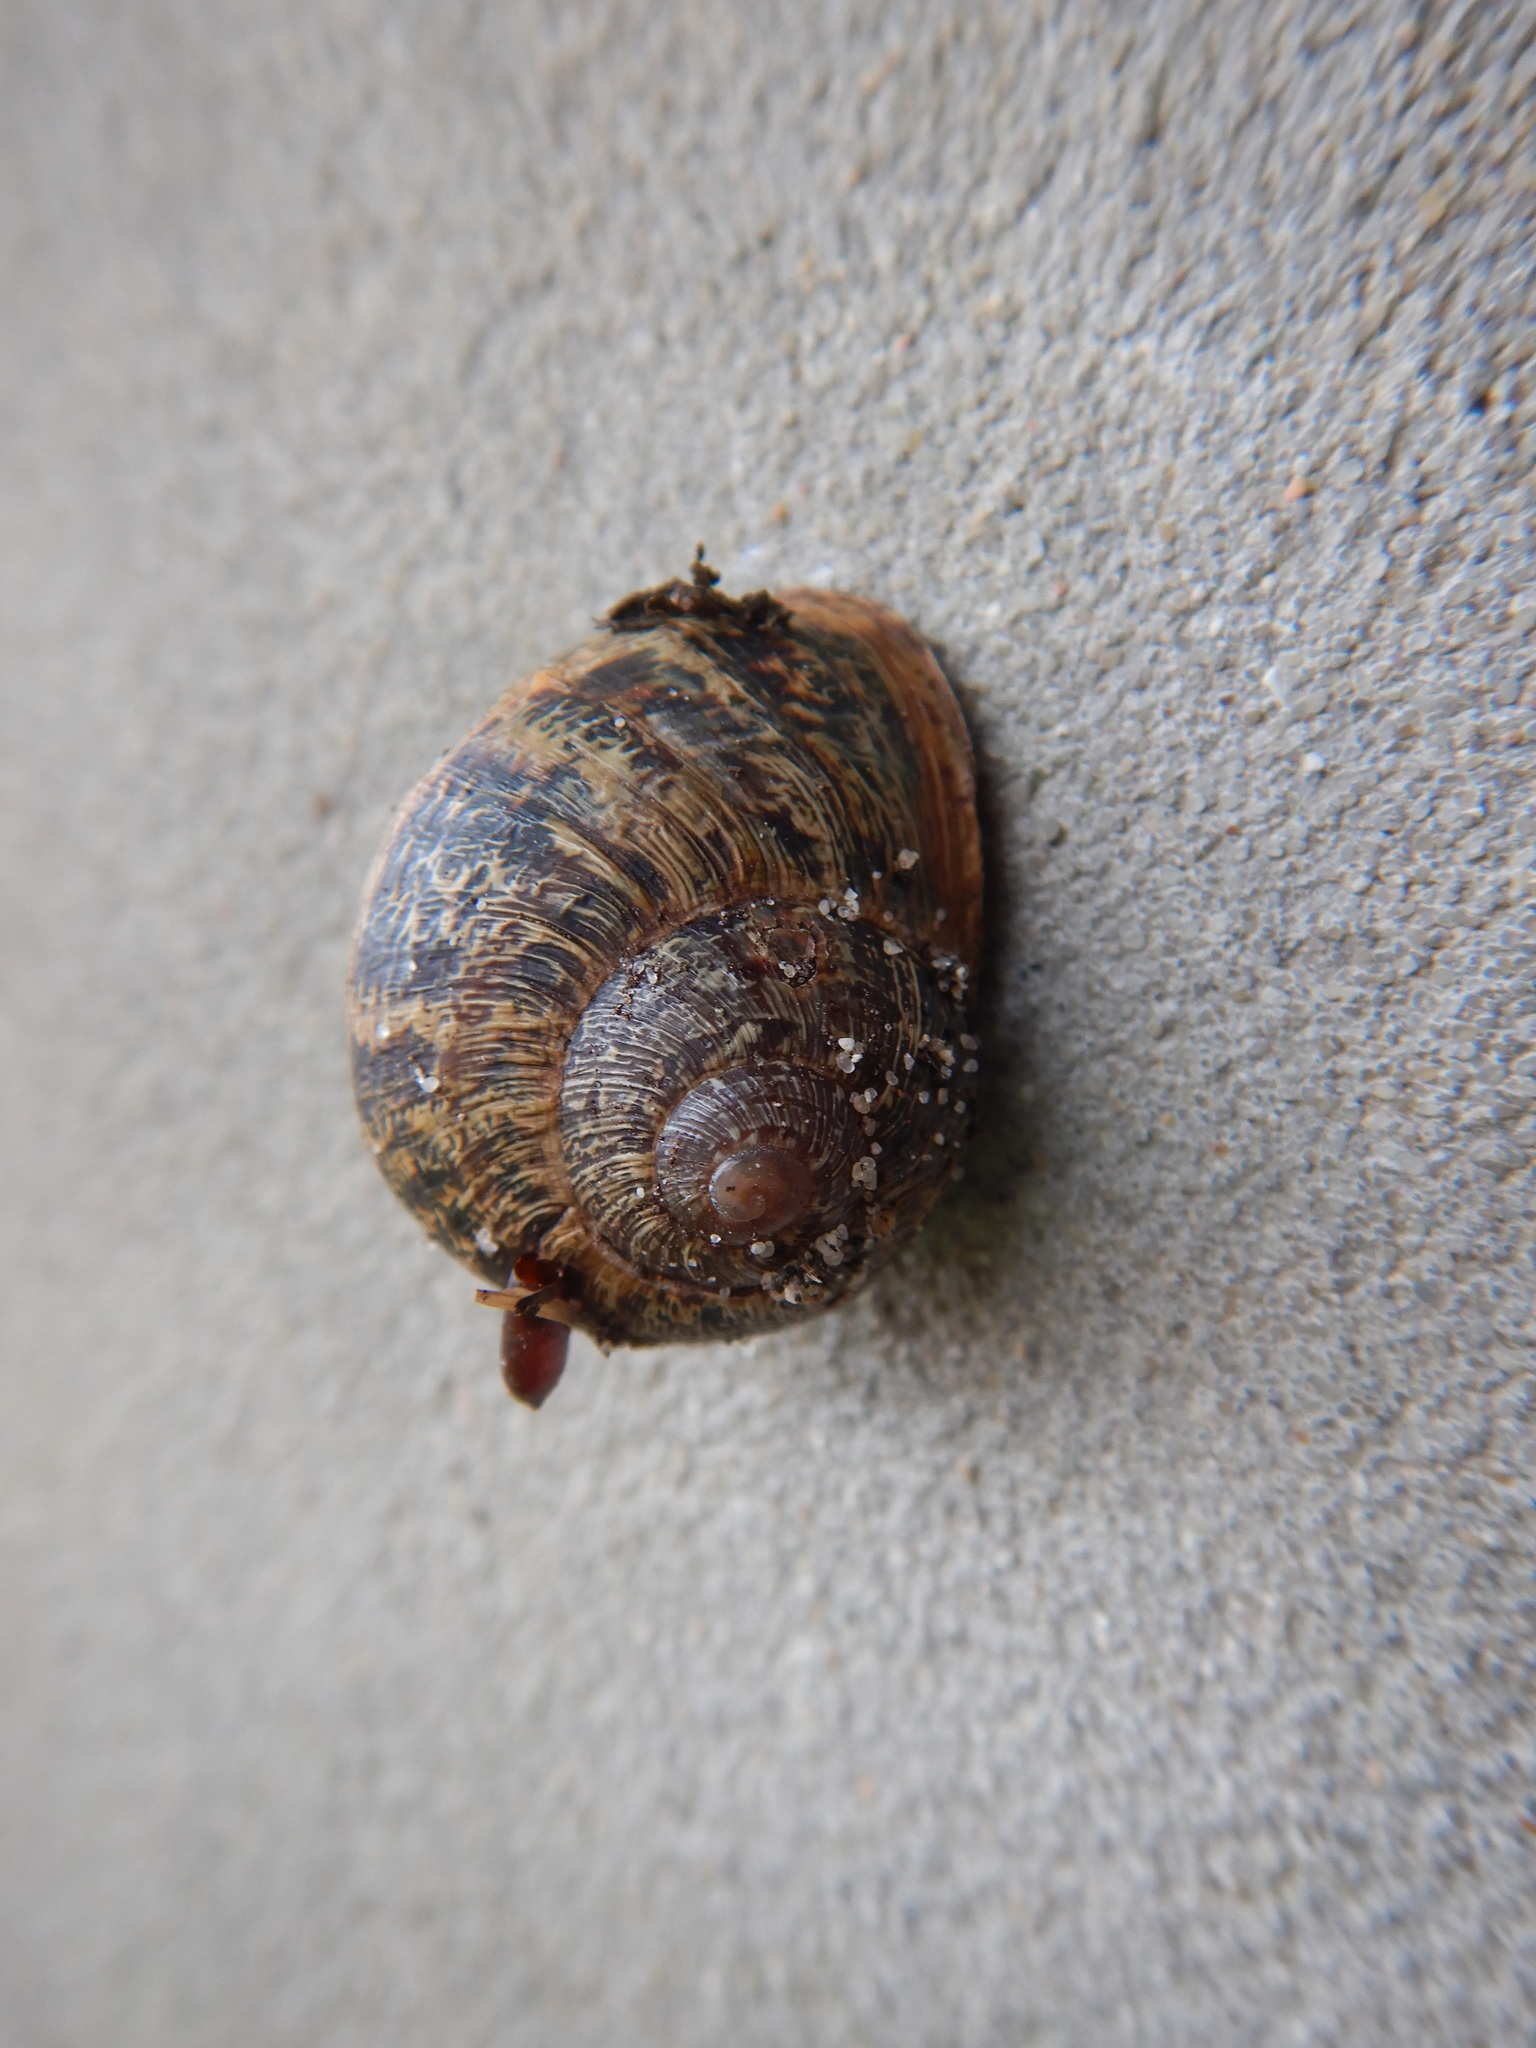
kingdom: Animalia
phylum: Mollusca
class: Gastropoda
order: Stylommatophora
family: Helicidae
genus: Cornu
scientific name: Cornu aspersum
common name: Brown garden snail
